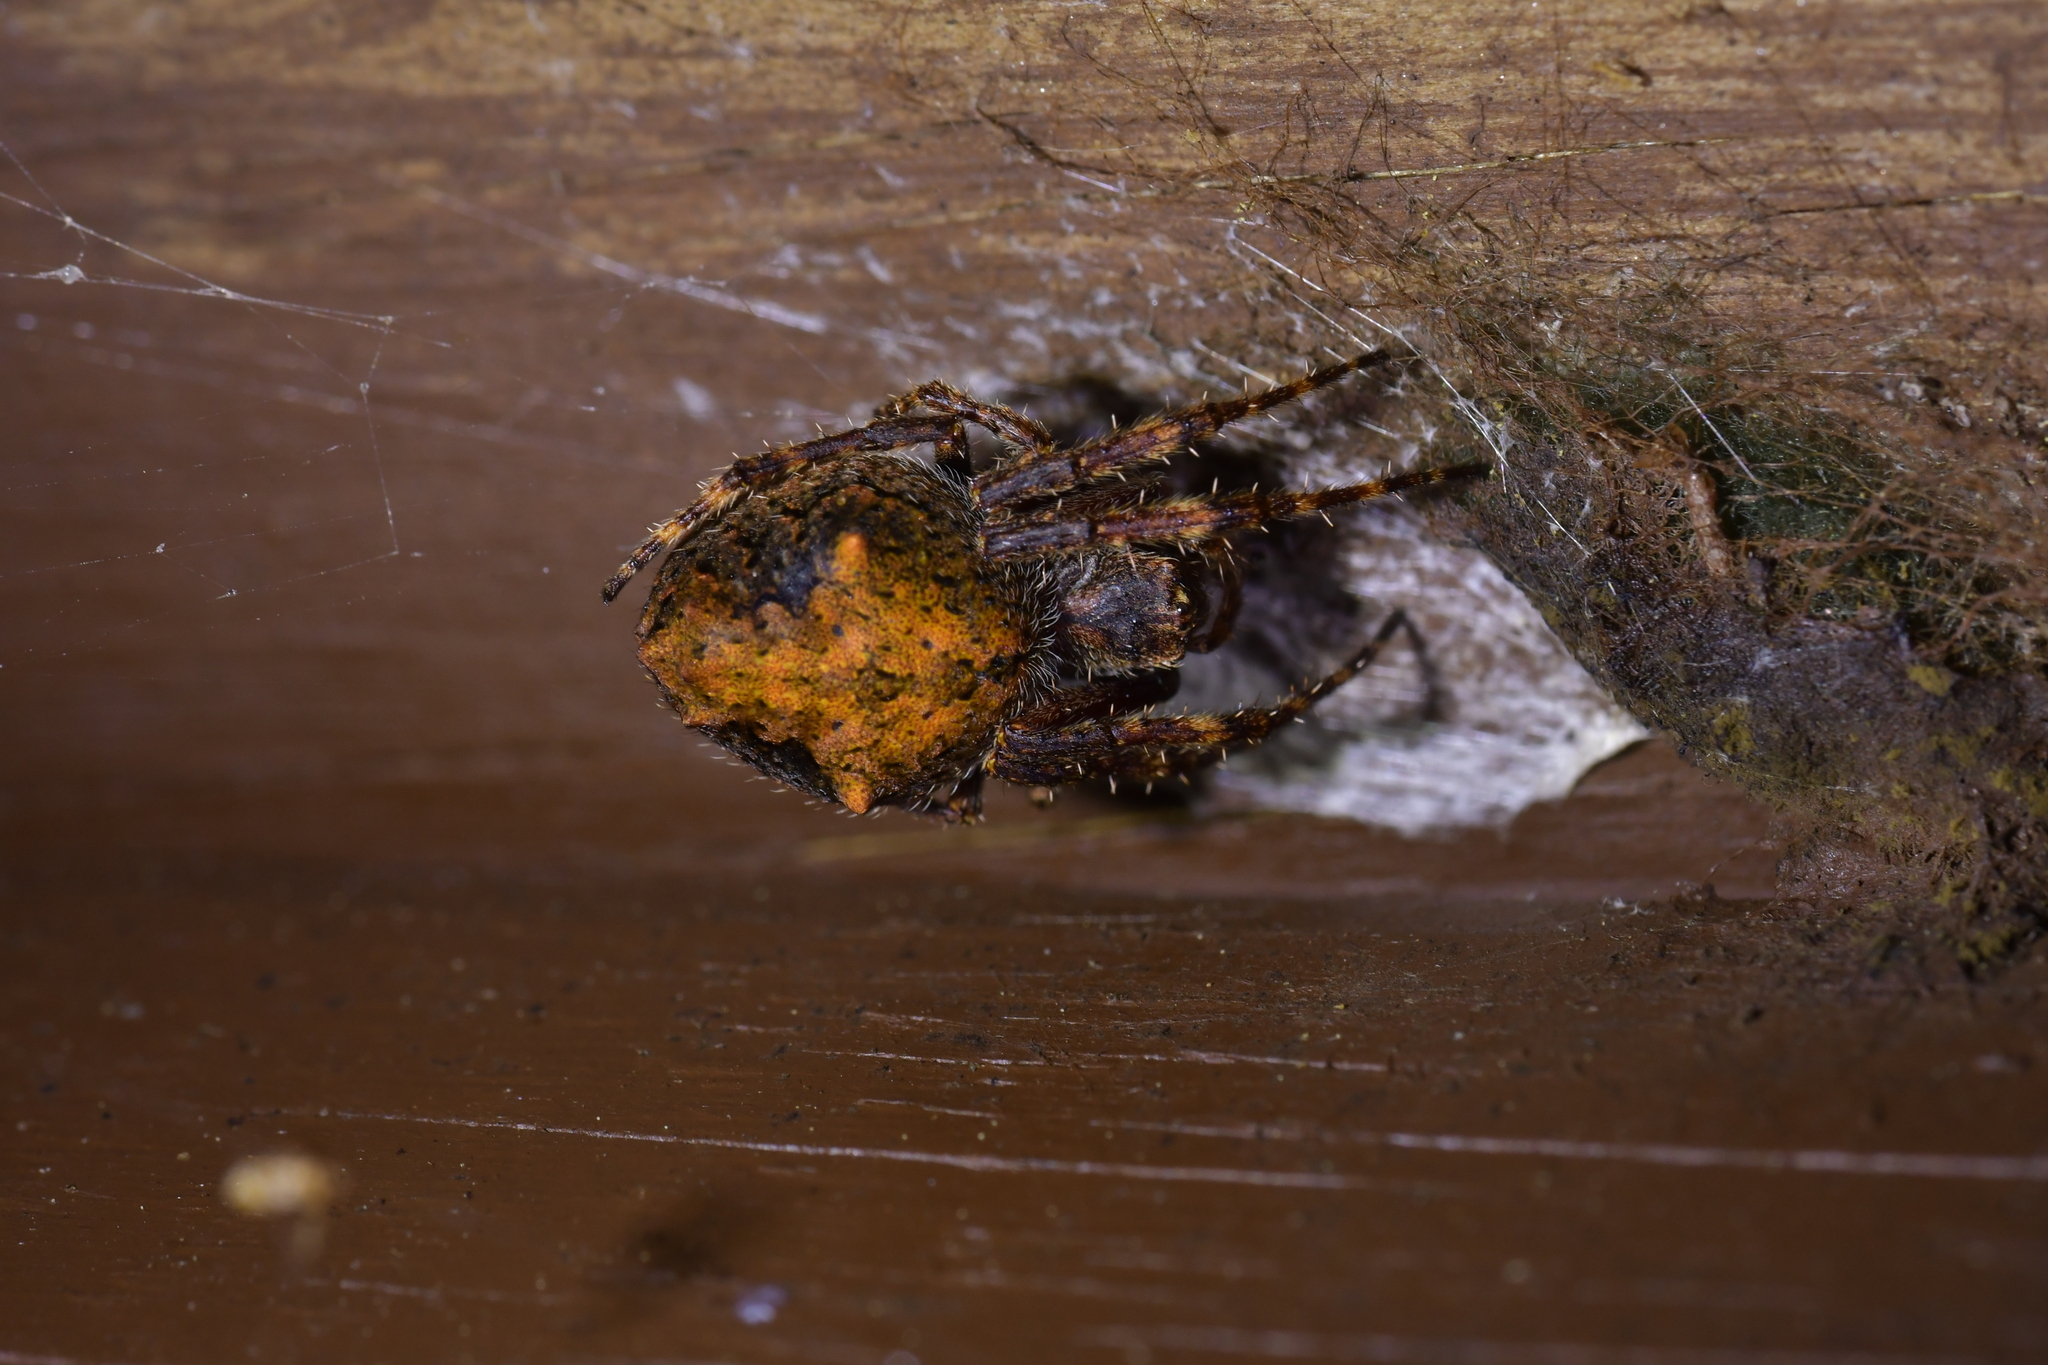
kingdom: Animalia
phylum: Arthropoda
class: Arachnida
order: Araneae
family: Araneidae
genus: Eriophora
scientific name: Eriophora pustulosa
